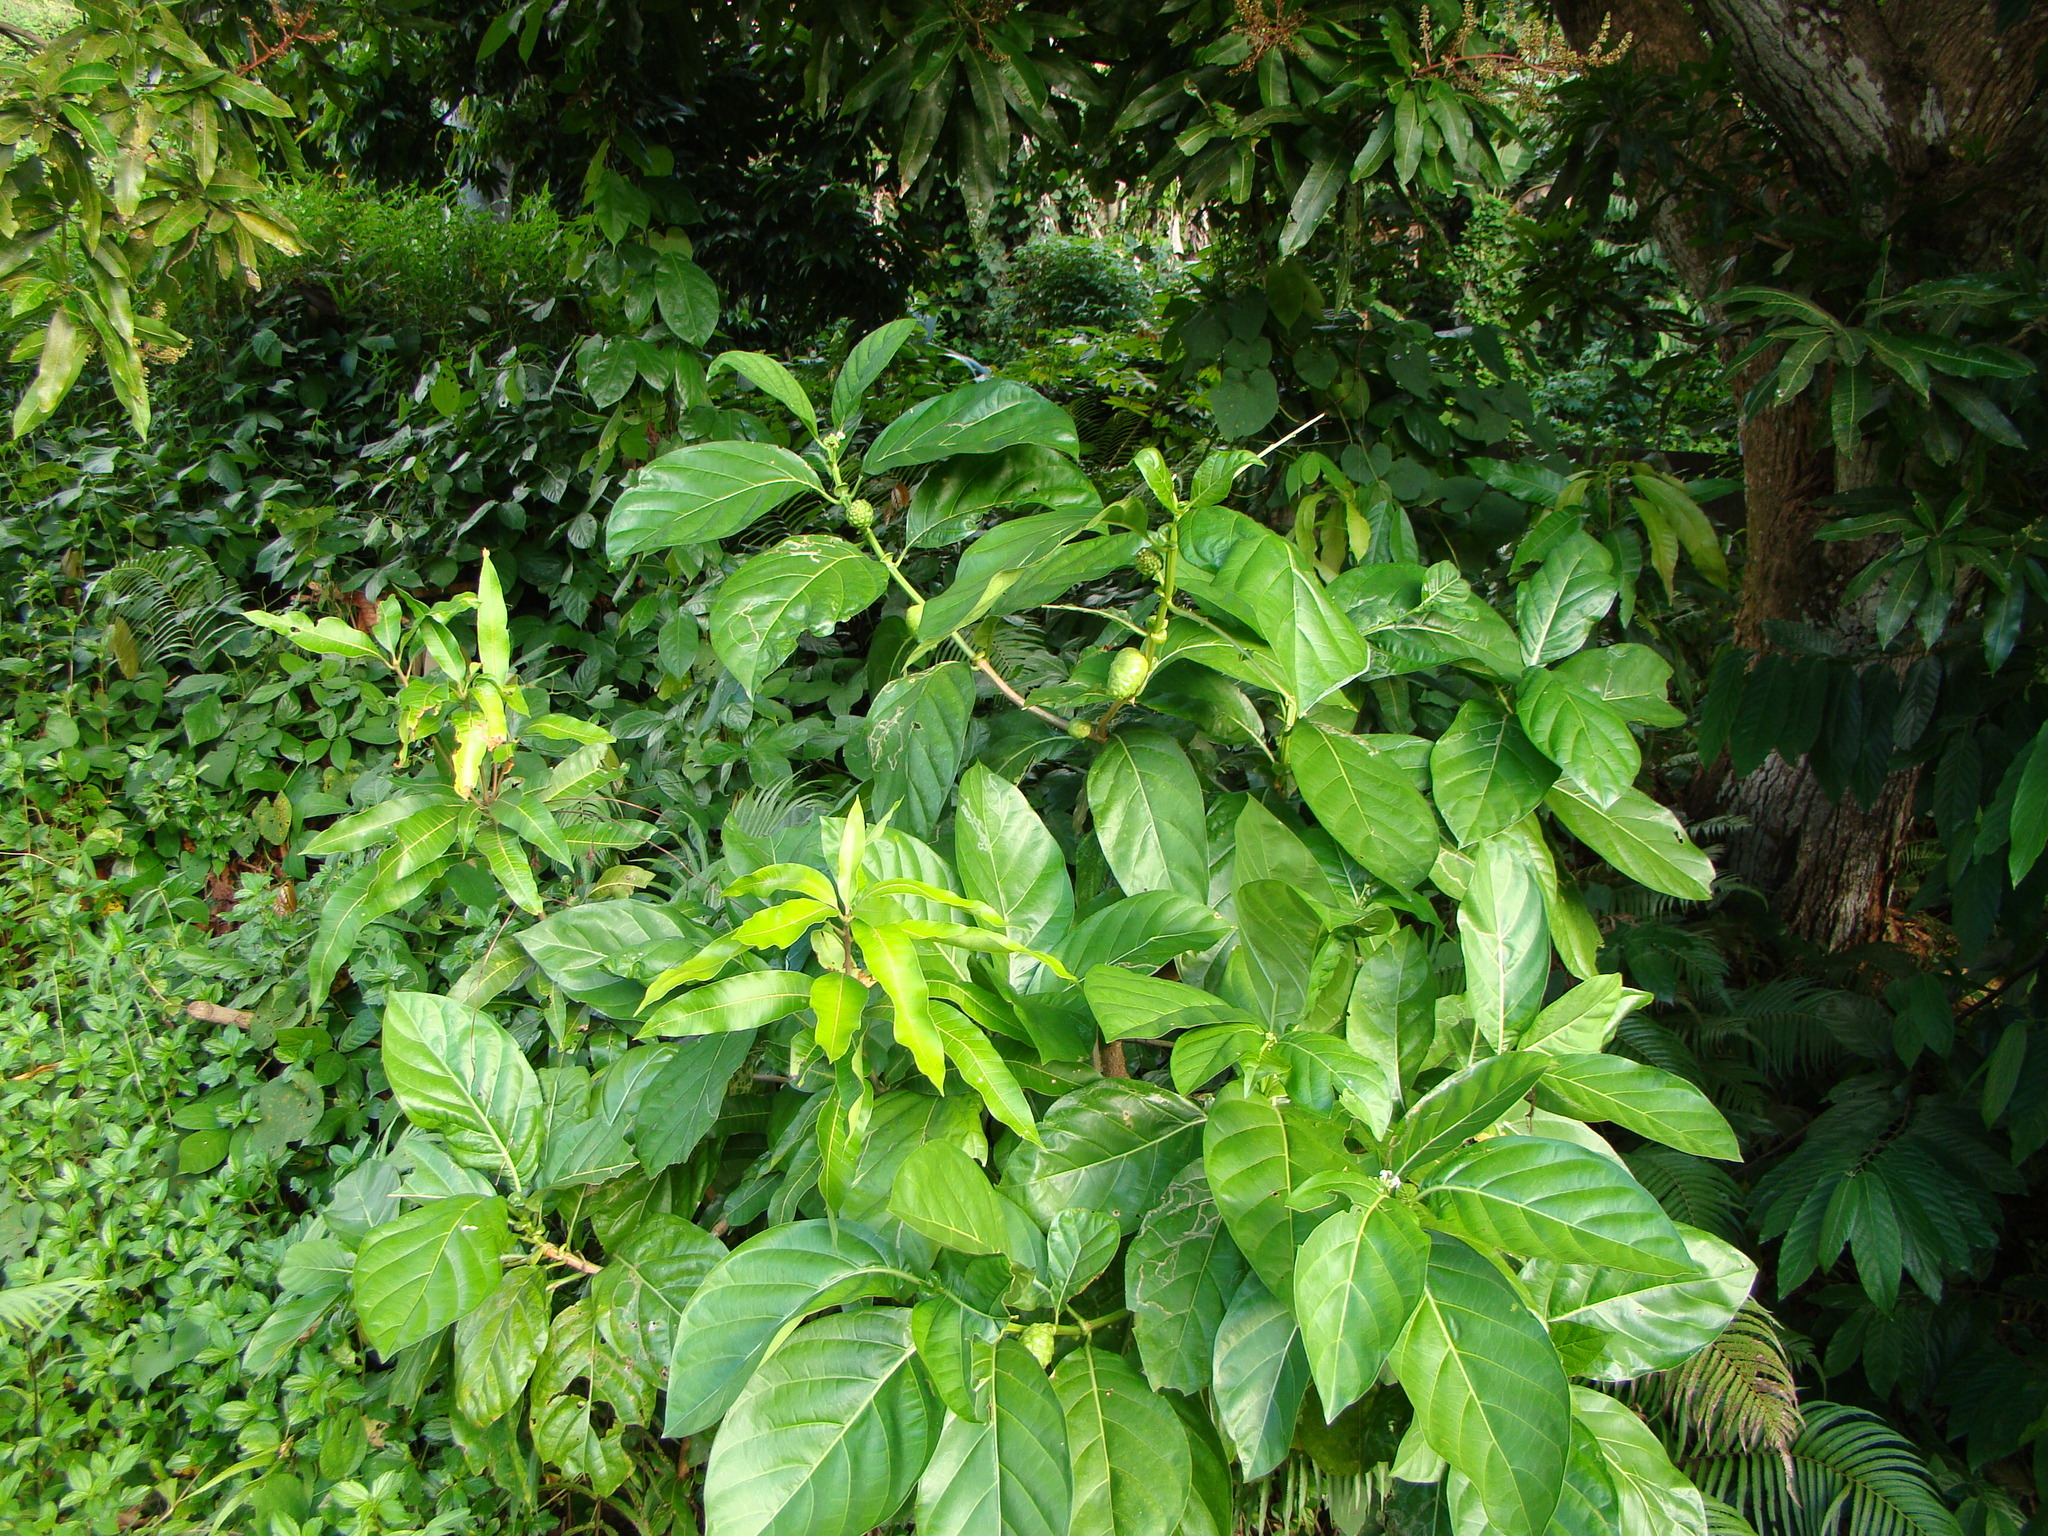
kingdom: Plantae
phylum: Tracheophyta
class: Magnoliopsida
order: Gentianales
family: Rubiaceae
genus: Morinda
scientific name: Morinda citrifolia
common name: Indian-mulberry
